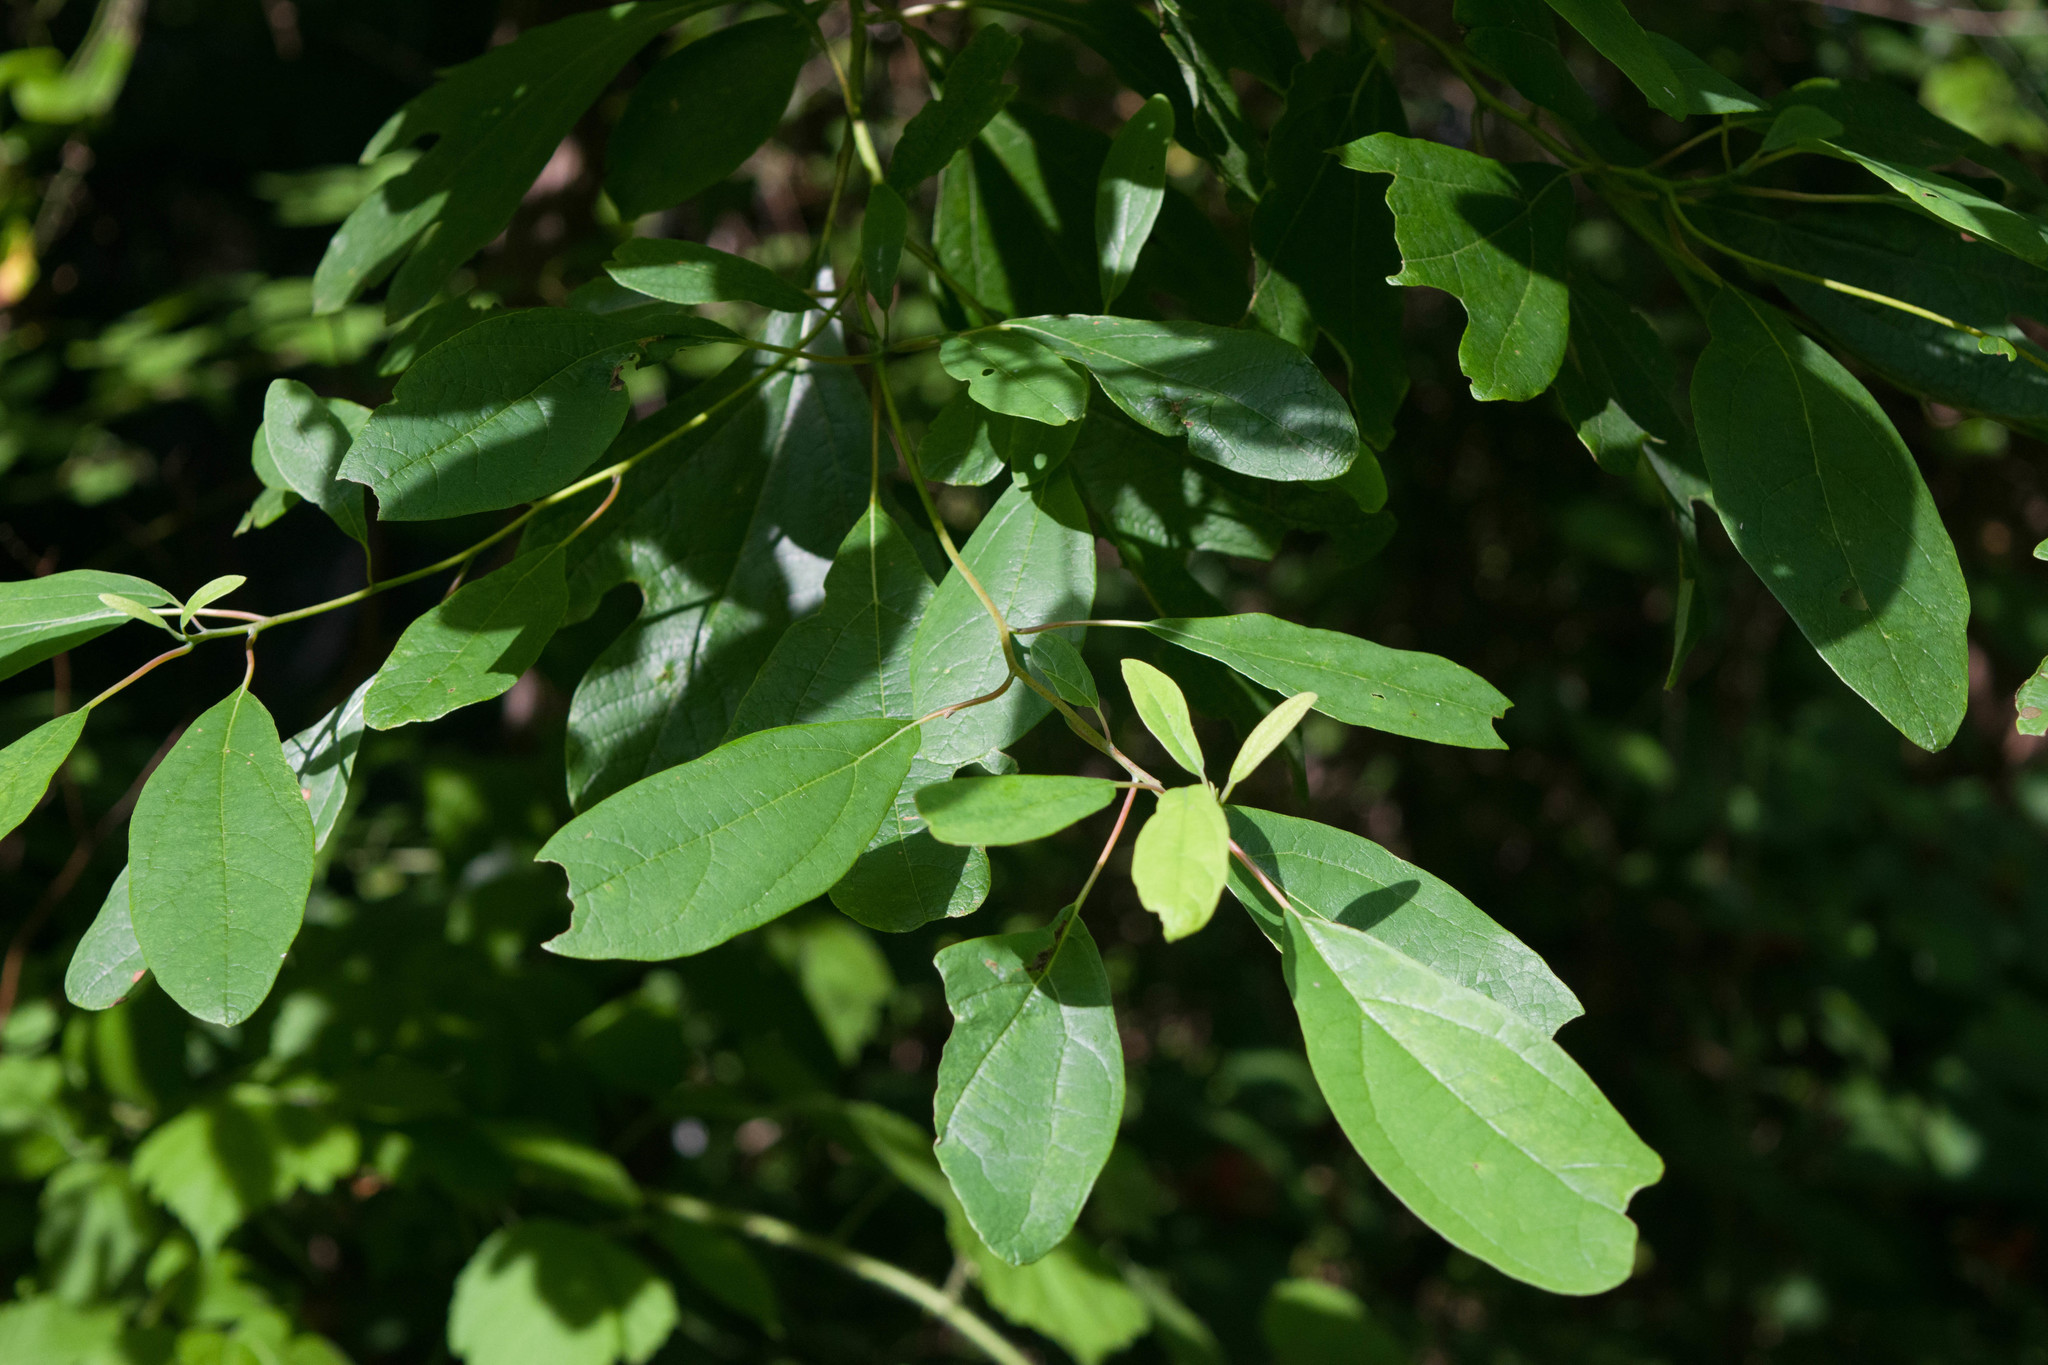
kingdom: Plantae
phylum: Tracheophyta
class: Magnoliopsida
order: Laurales
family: Lauraceae
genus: Sassafras
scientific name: Sassafras albidum
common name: Sassafras
